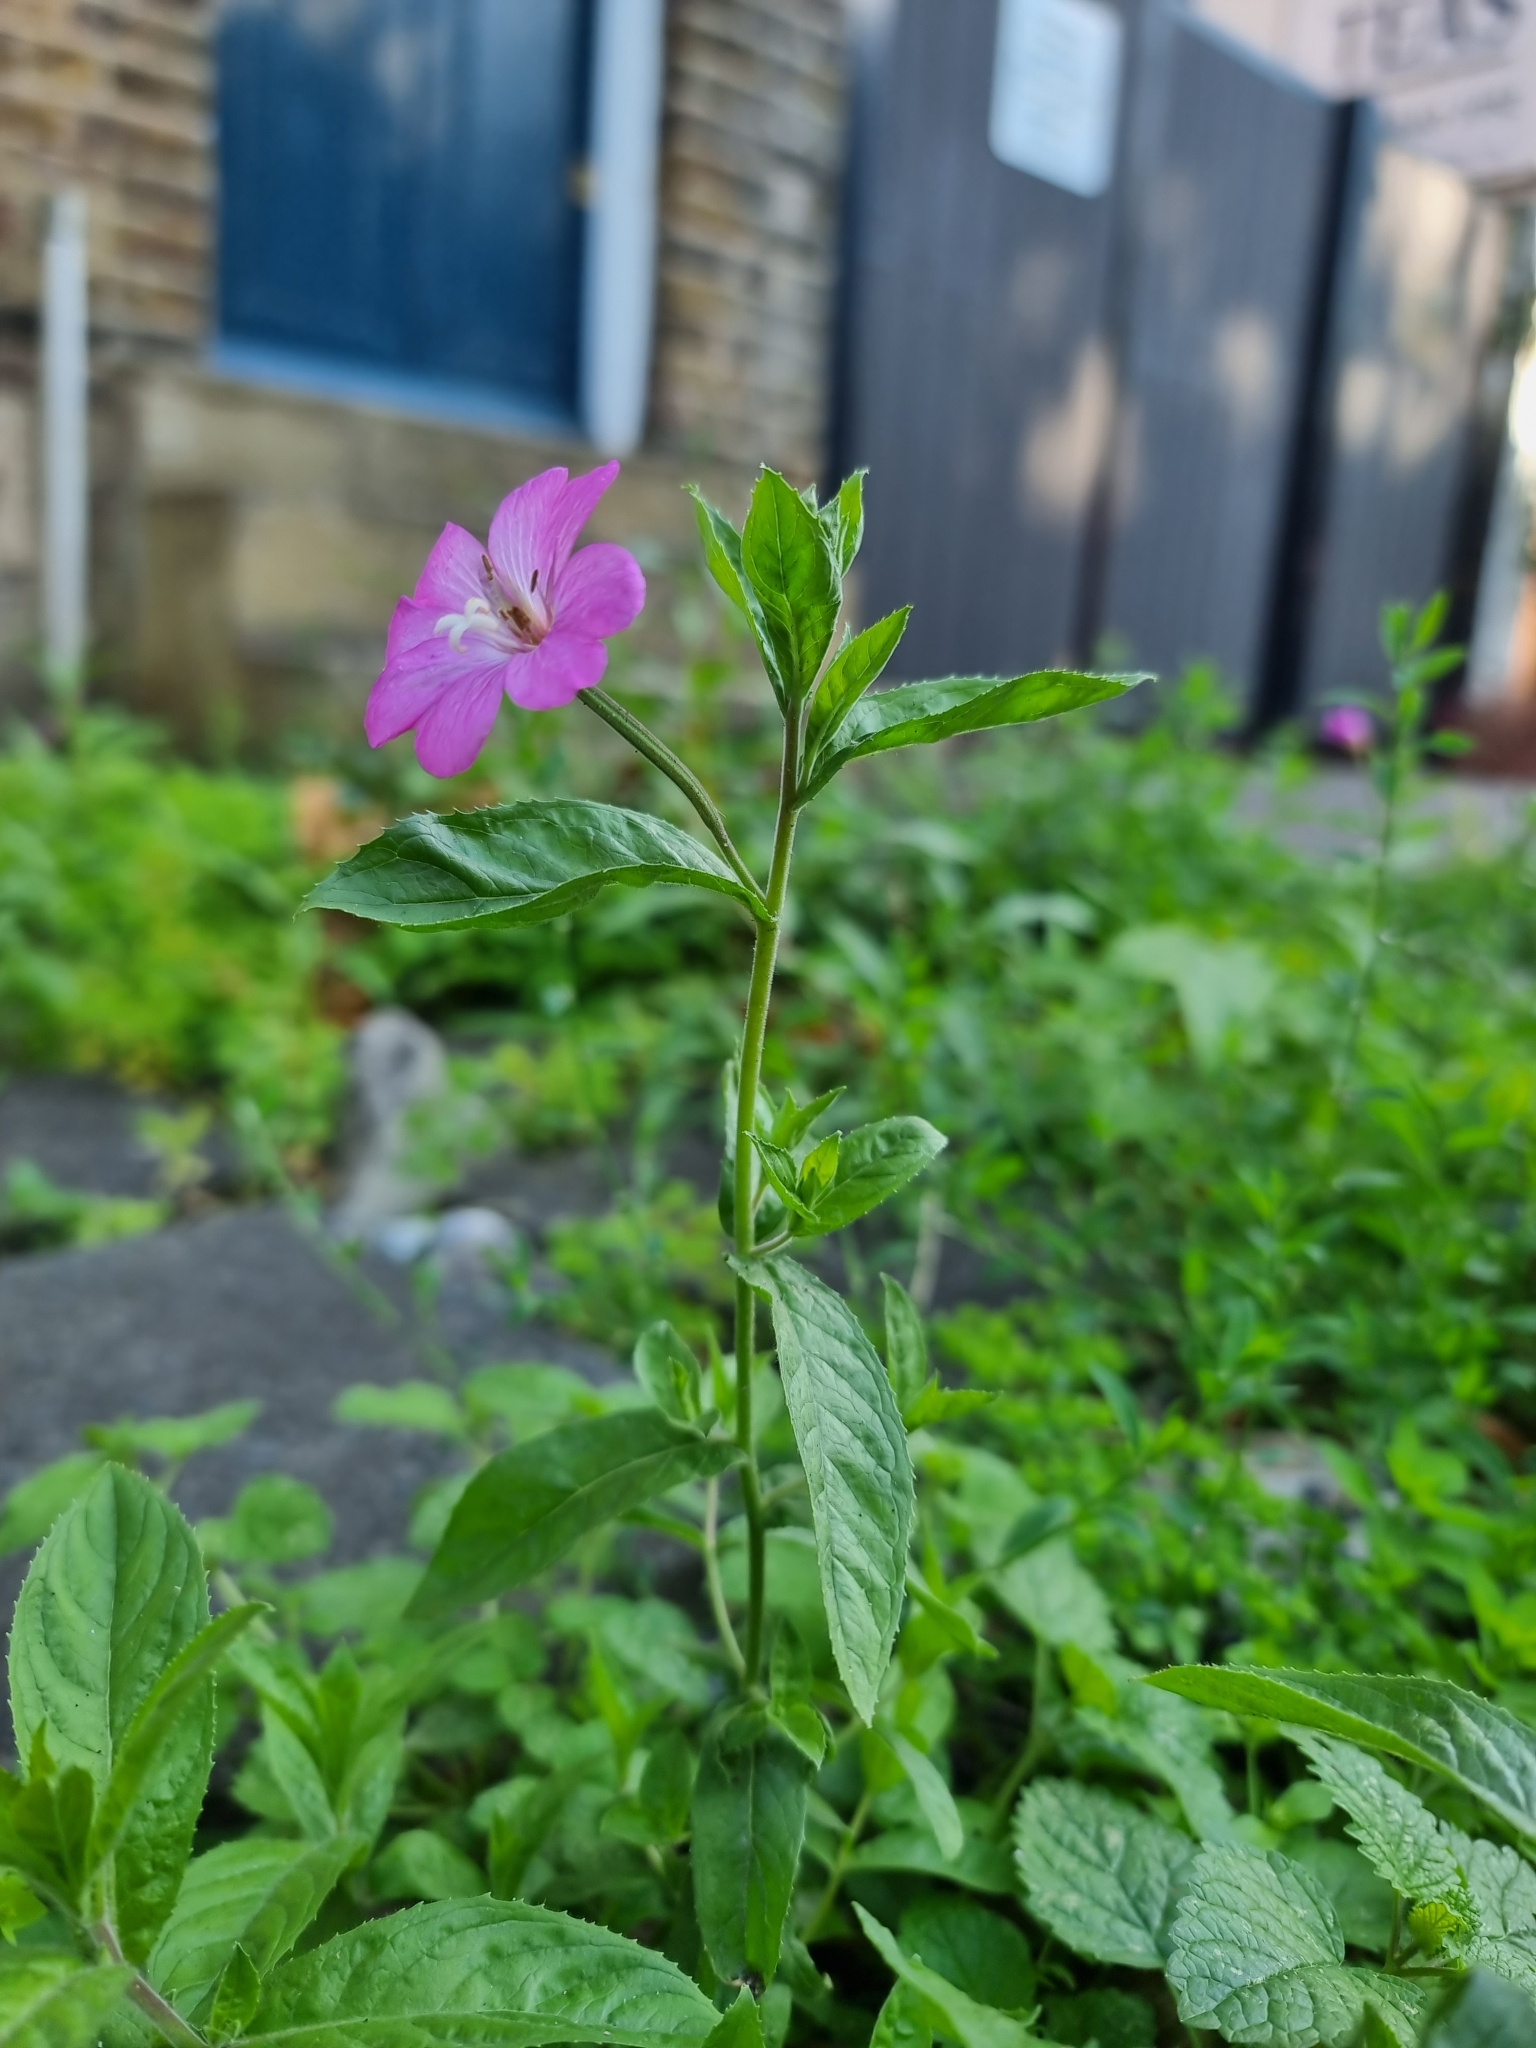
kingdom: Plantae
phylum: Tracheophyta
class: Magnoliopsida
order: Myrtales
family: Onagraceae
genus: Epilobium
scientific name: Epilobium hirsutum
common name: Great willowherb
